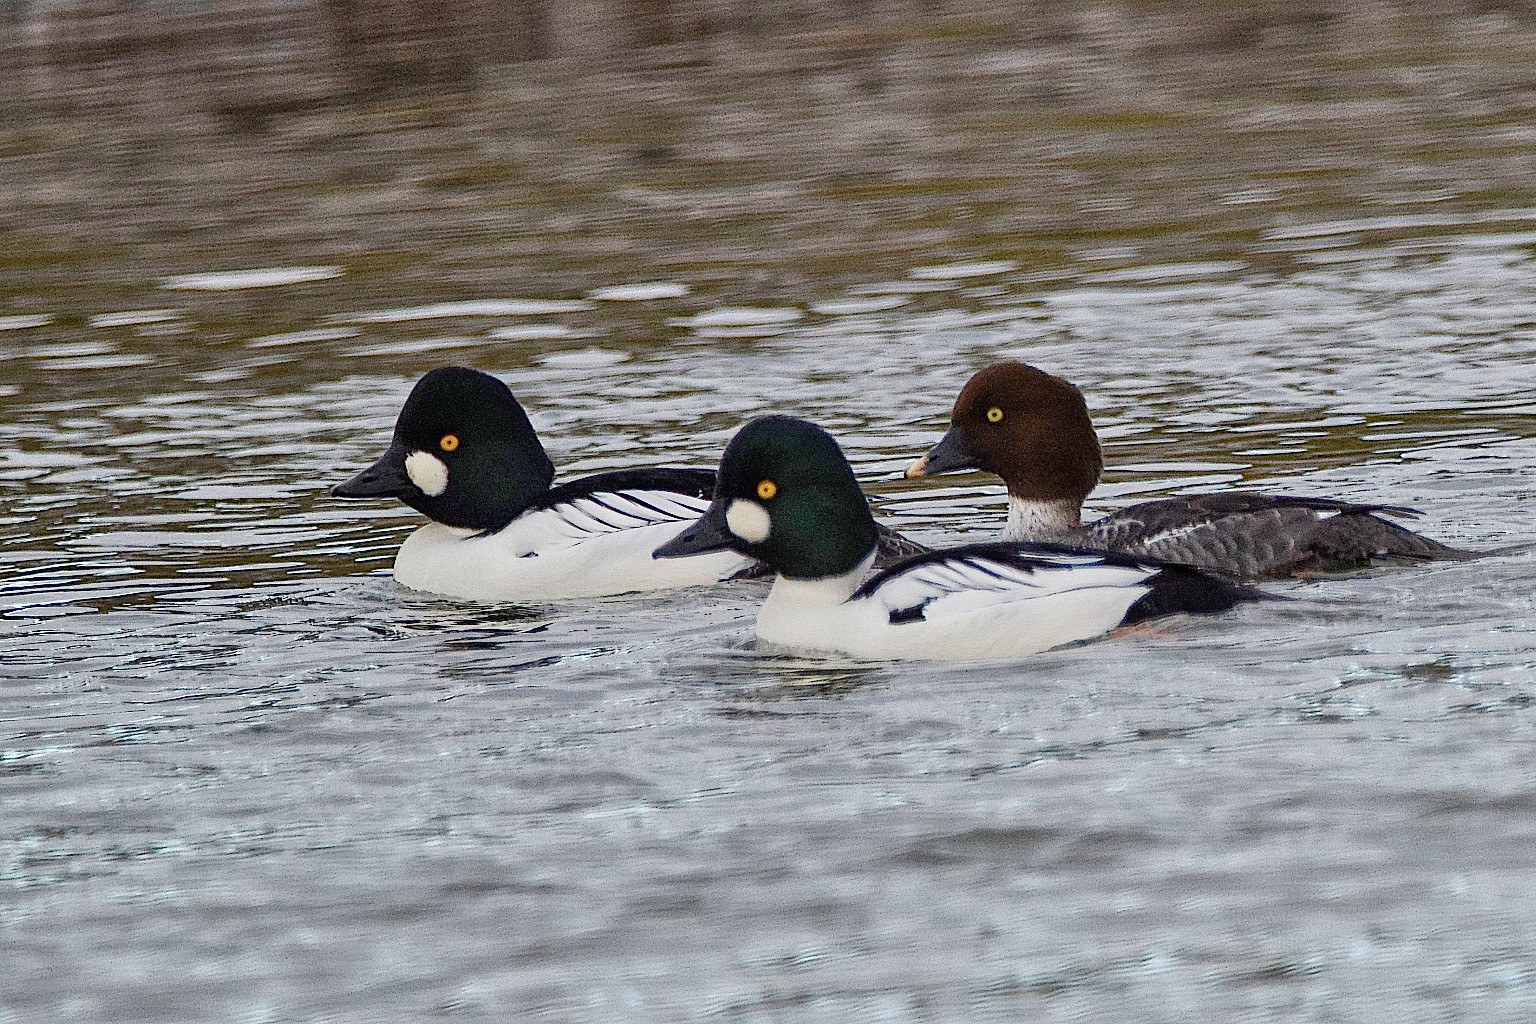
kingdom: Animalia
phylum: Chordata
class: Aves
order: Anseriformes
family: Anatidae
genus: Bucephala
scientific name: Bucephala clangula
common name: Common goldeneye
